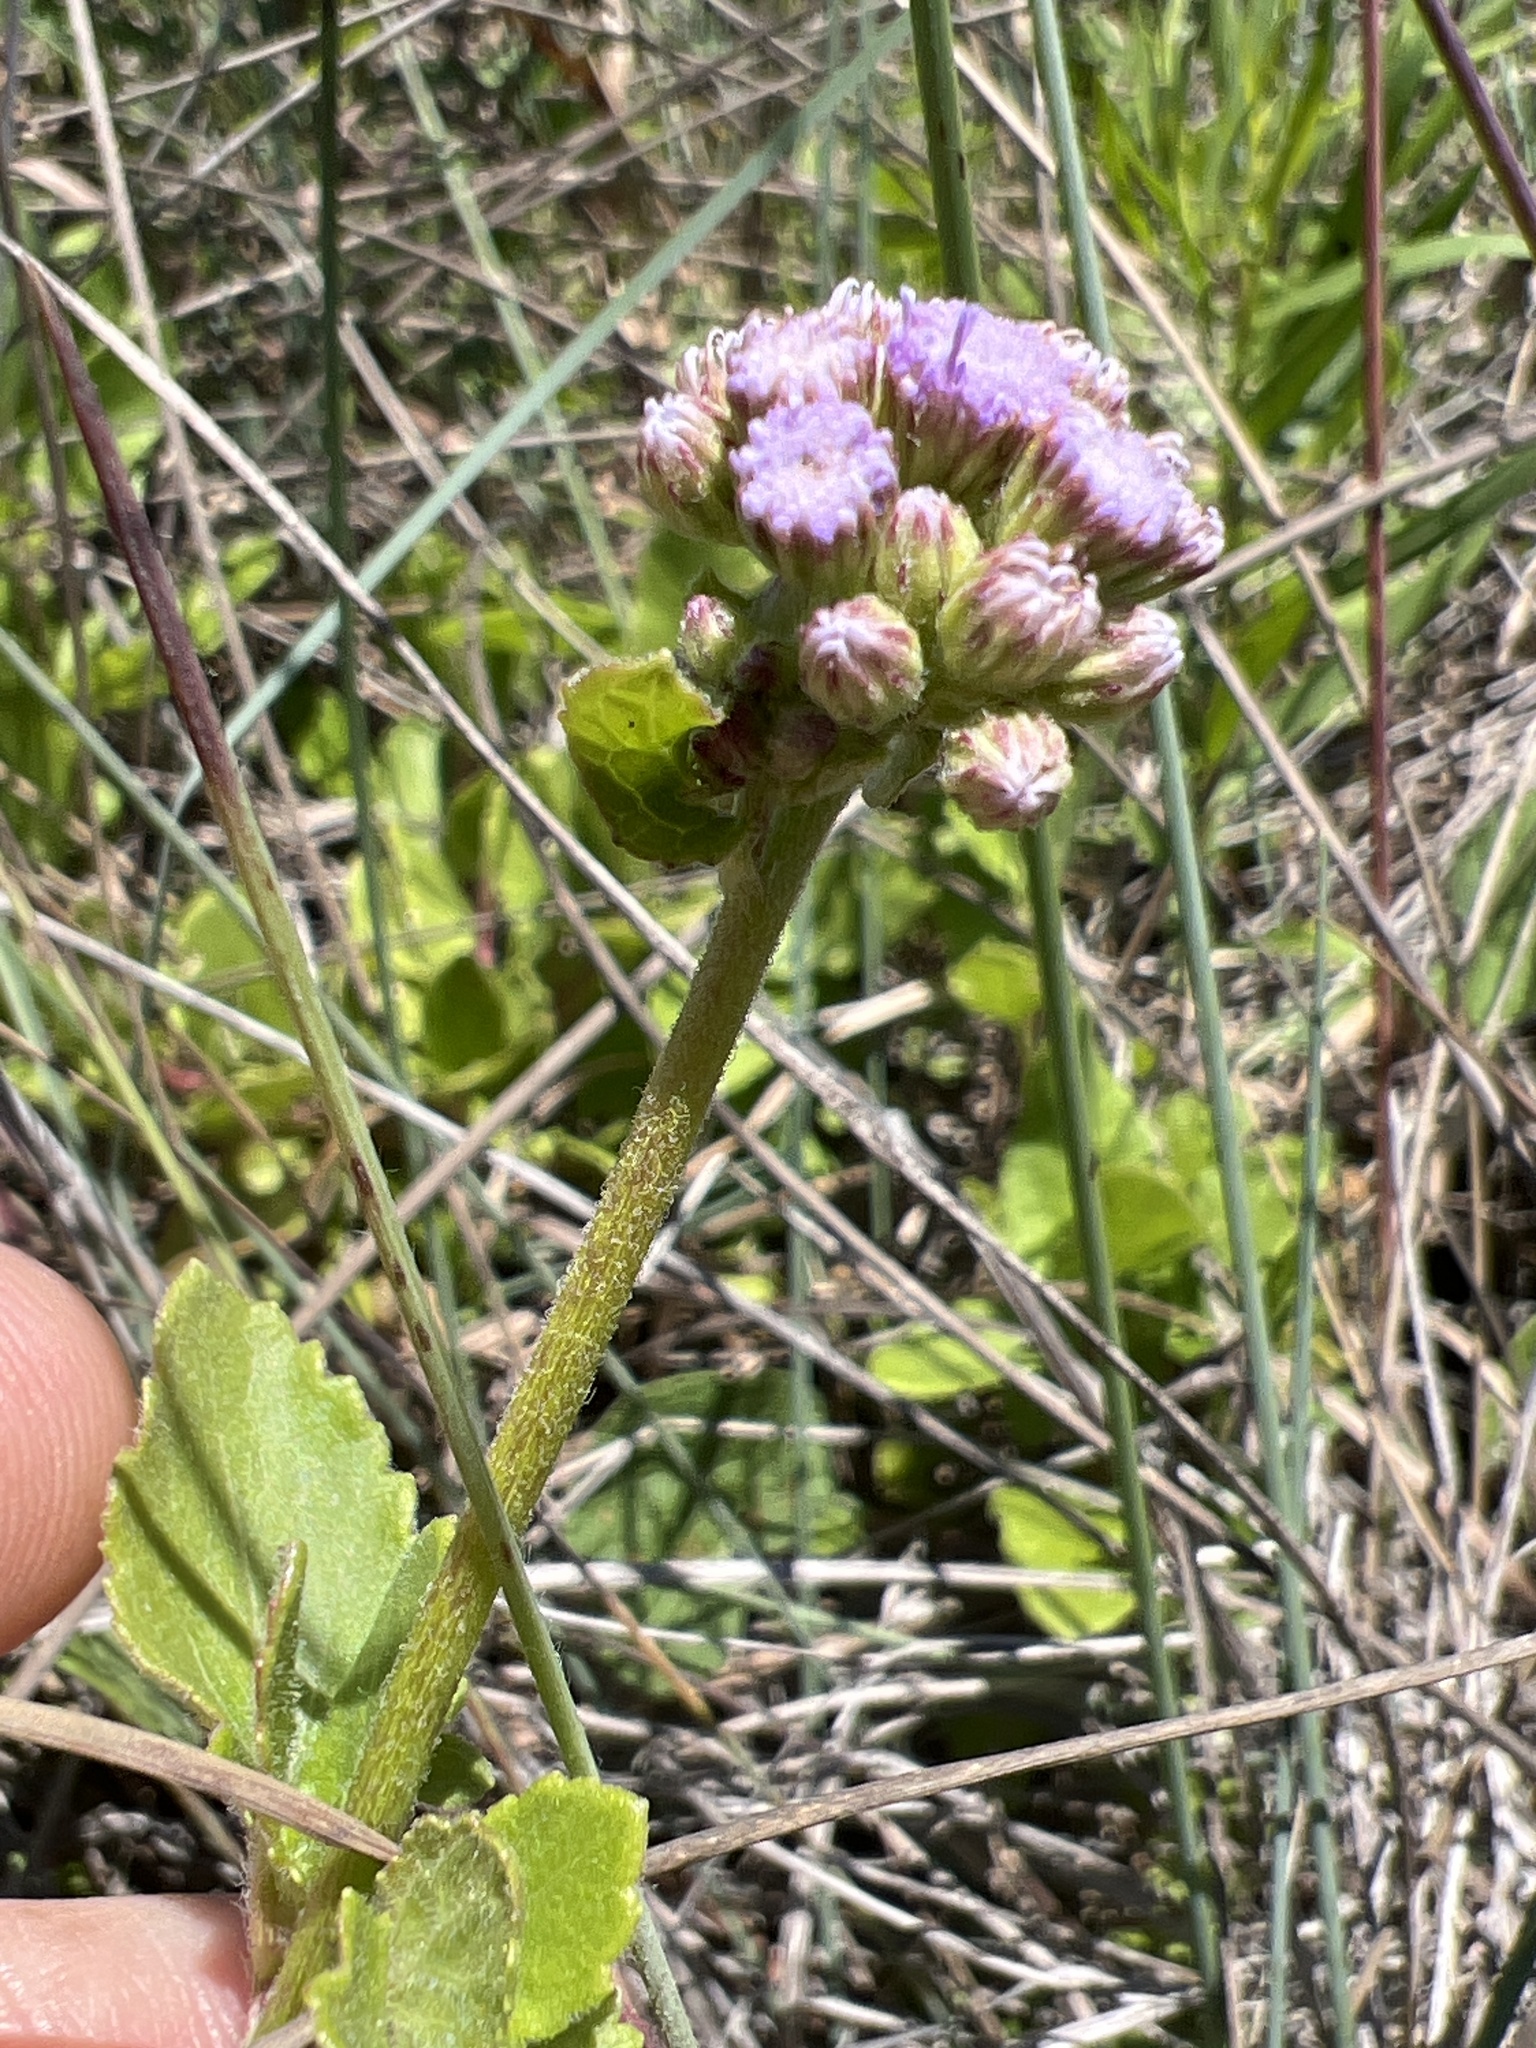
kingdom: Plantae
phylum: Tracheophyta
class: Magnoliopsida
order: Asterales
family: Asteraceae
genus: Conoclinium
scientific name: Conoclinium betonicifolium
